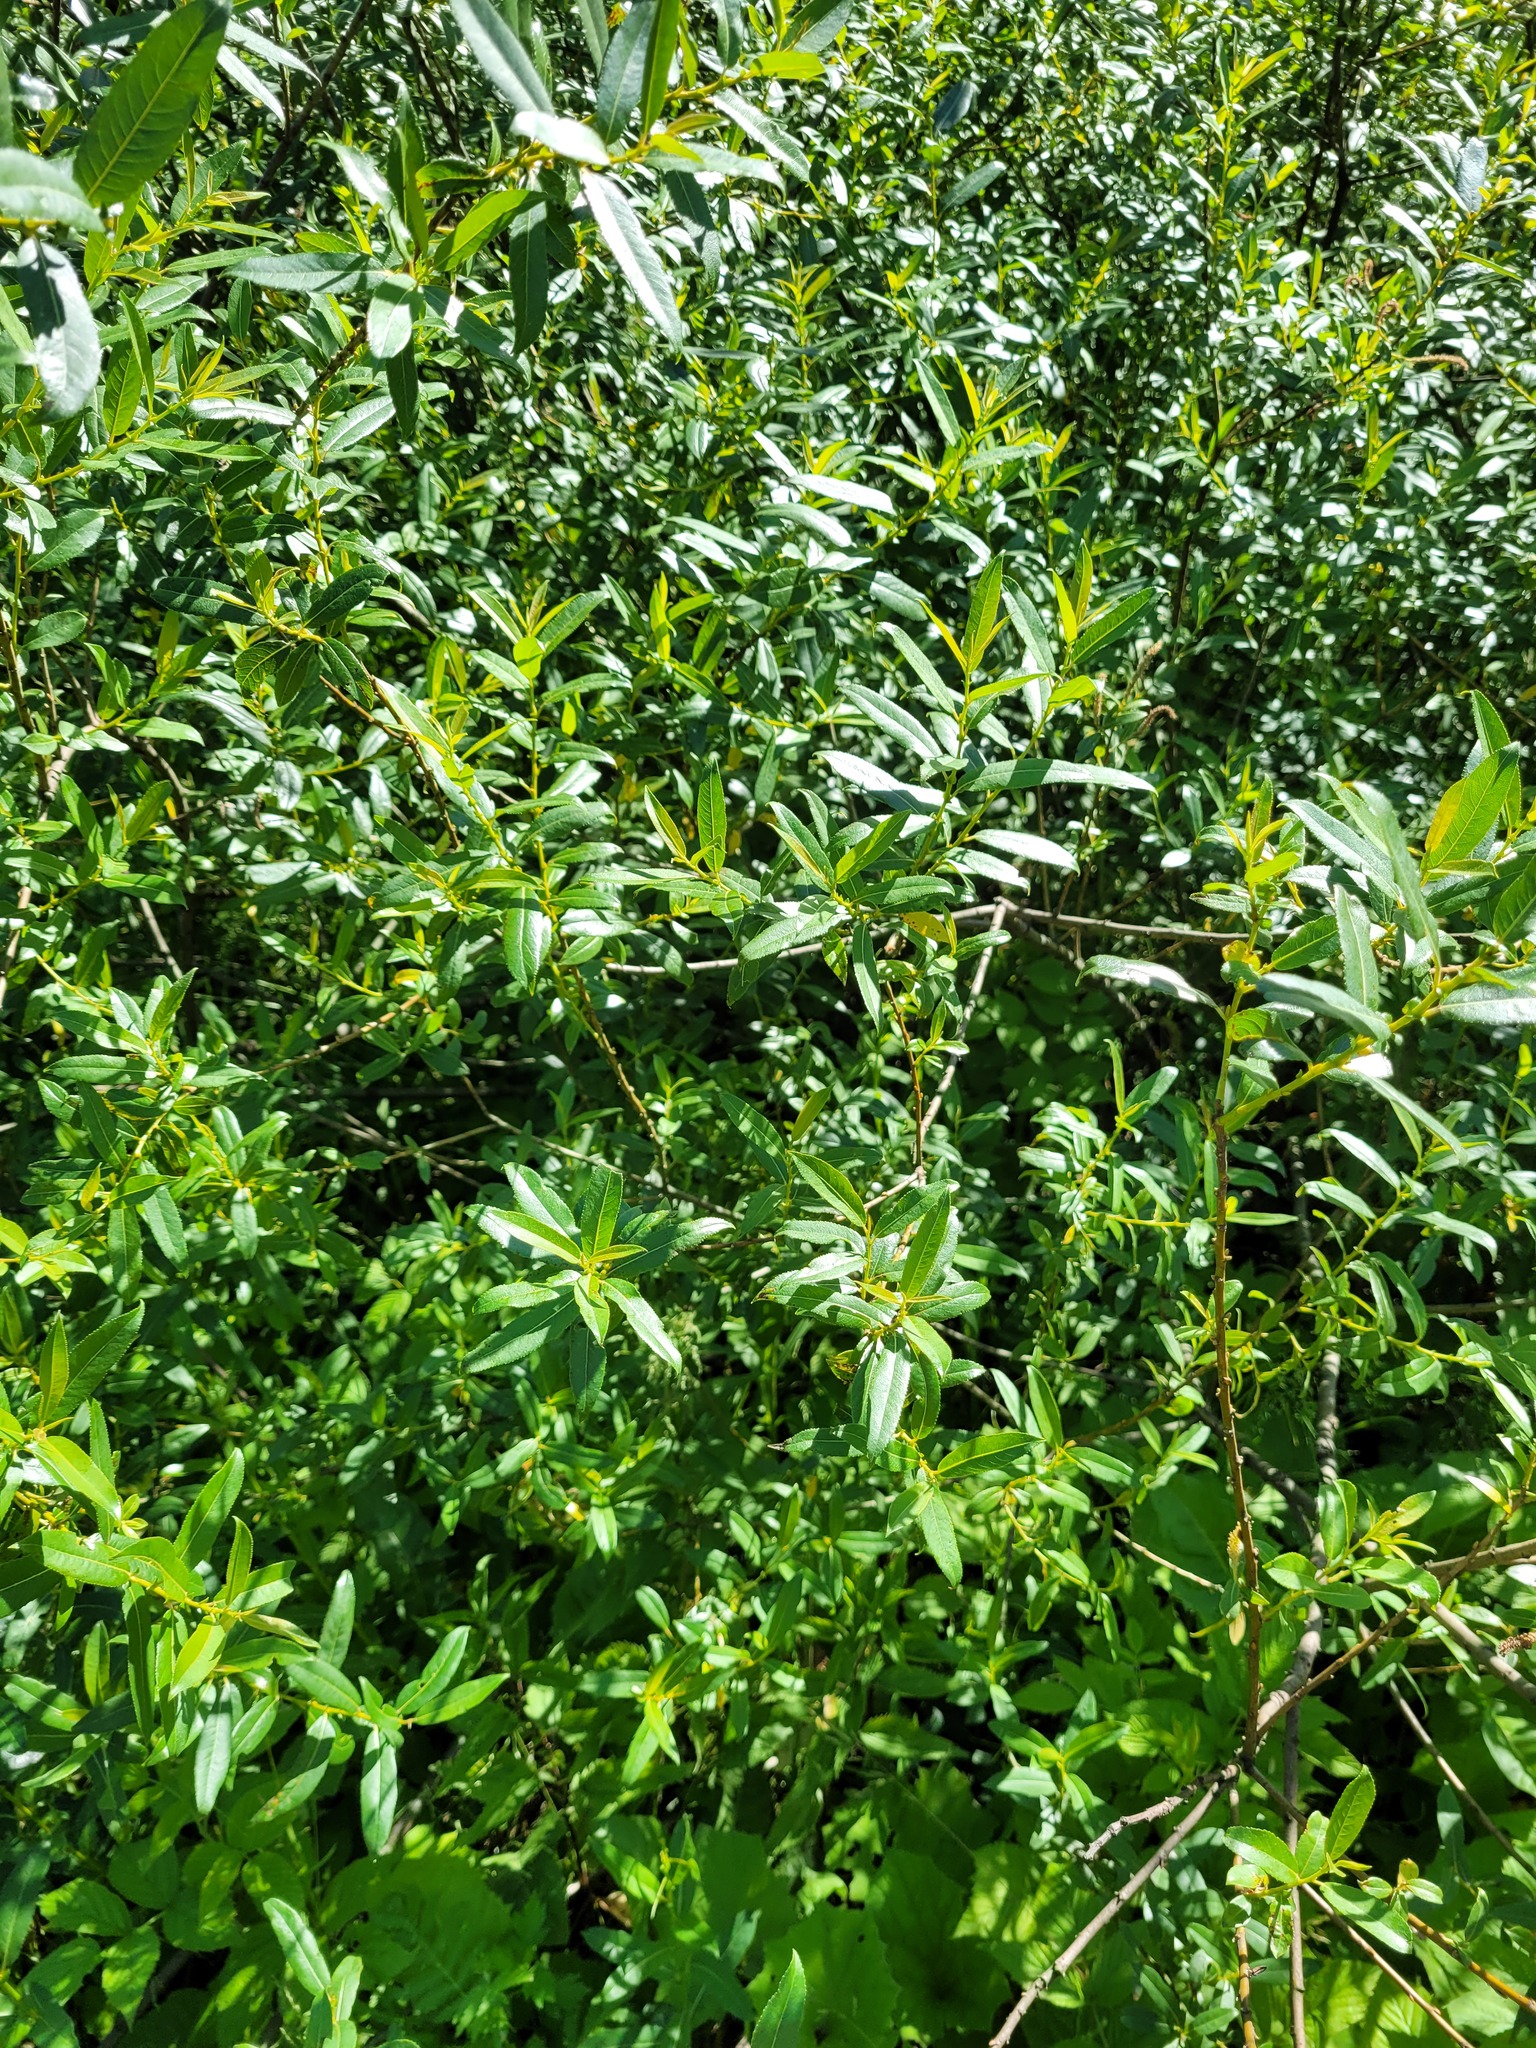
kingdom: Plantae
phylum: Tracheophyta
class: Magnoliopsida
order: Malpighiales
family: Salicaceae
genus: Salix
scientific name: Salix triandra
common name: Almond willow
